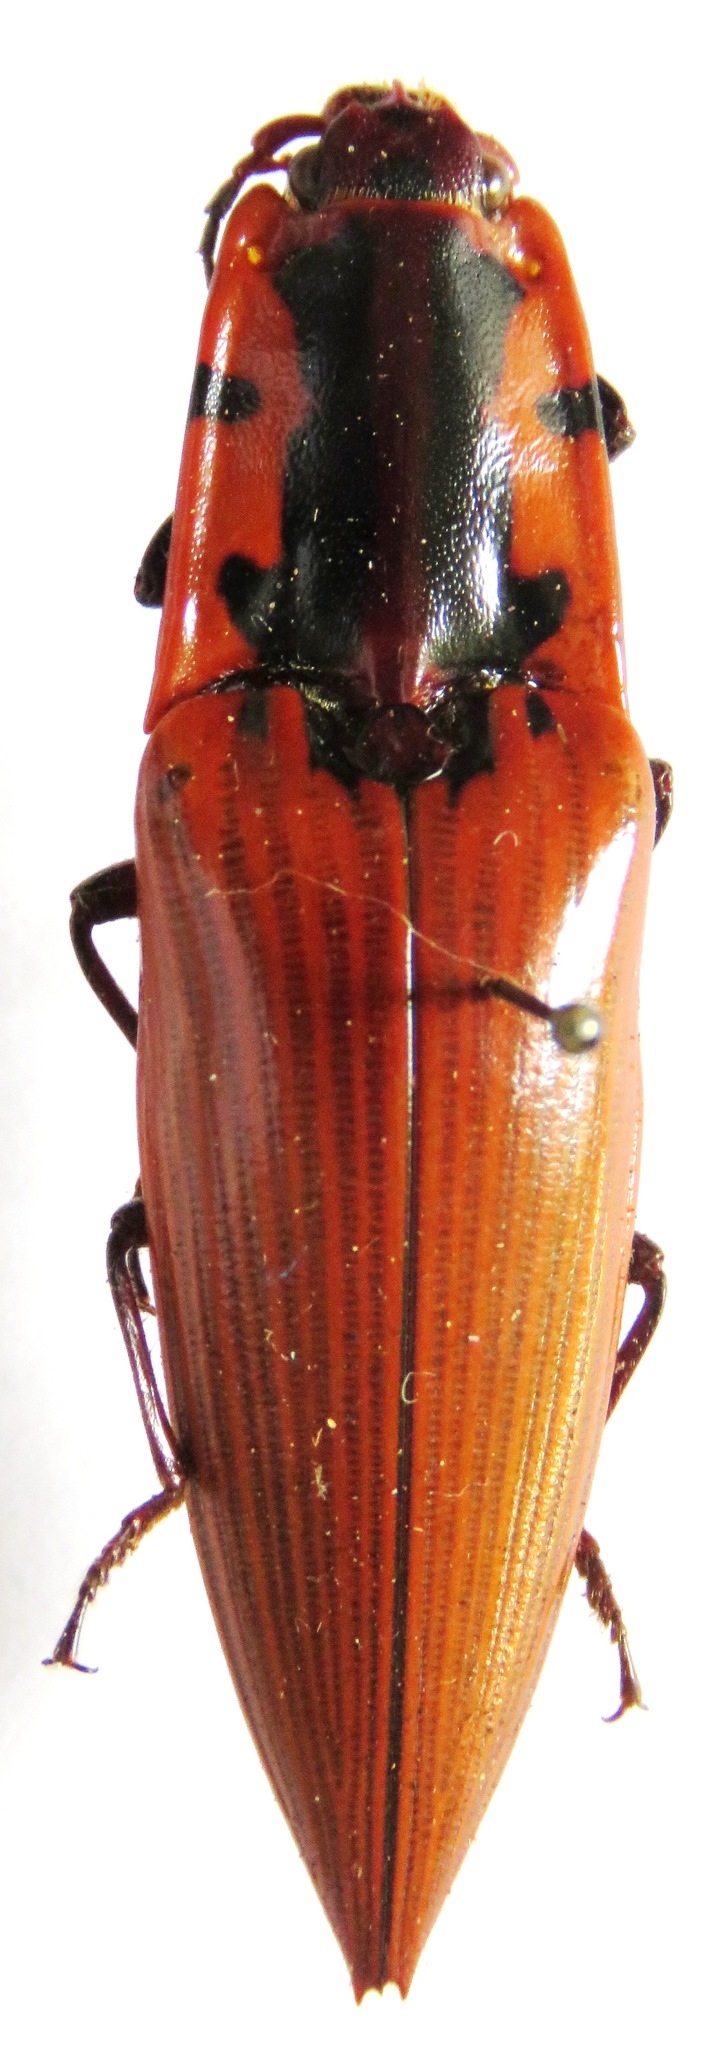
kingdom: Animalia
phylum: Arthropoda
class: Insecta
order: Coleoptera
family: Elateridae
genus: Semiotus
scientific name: Semiotus
